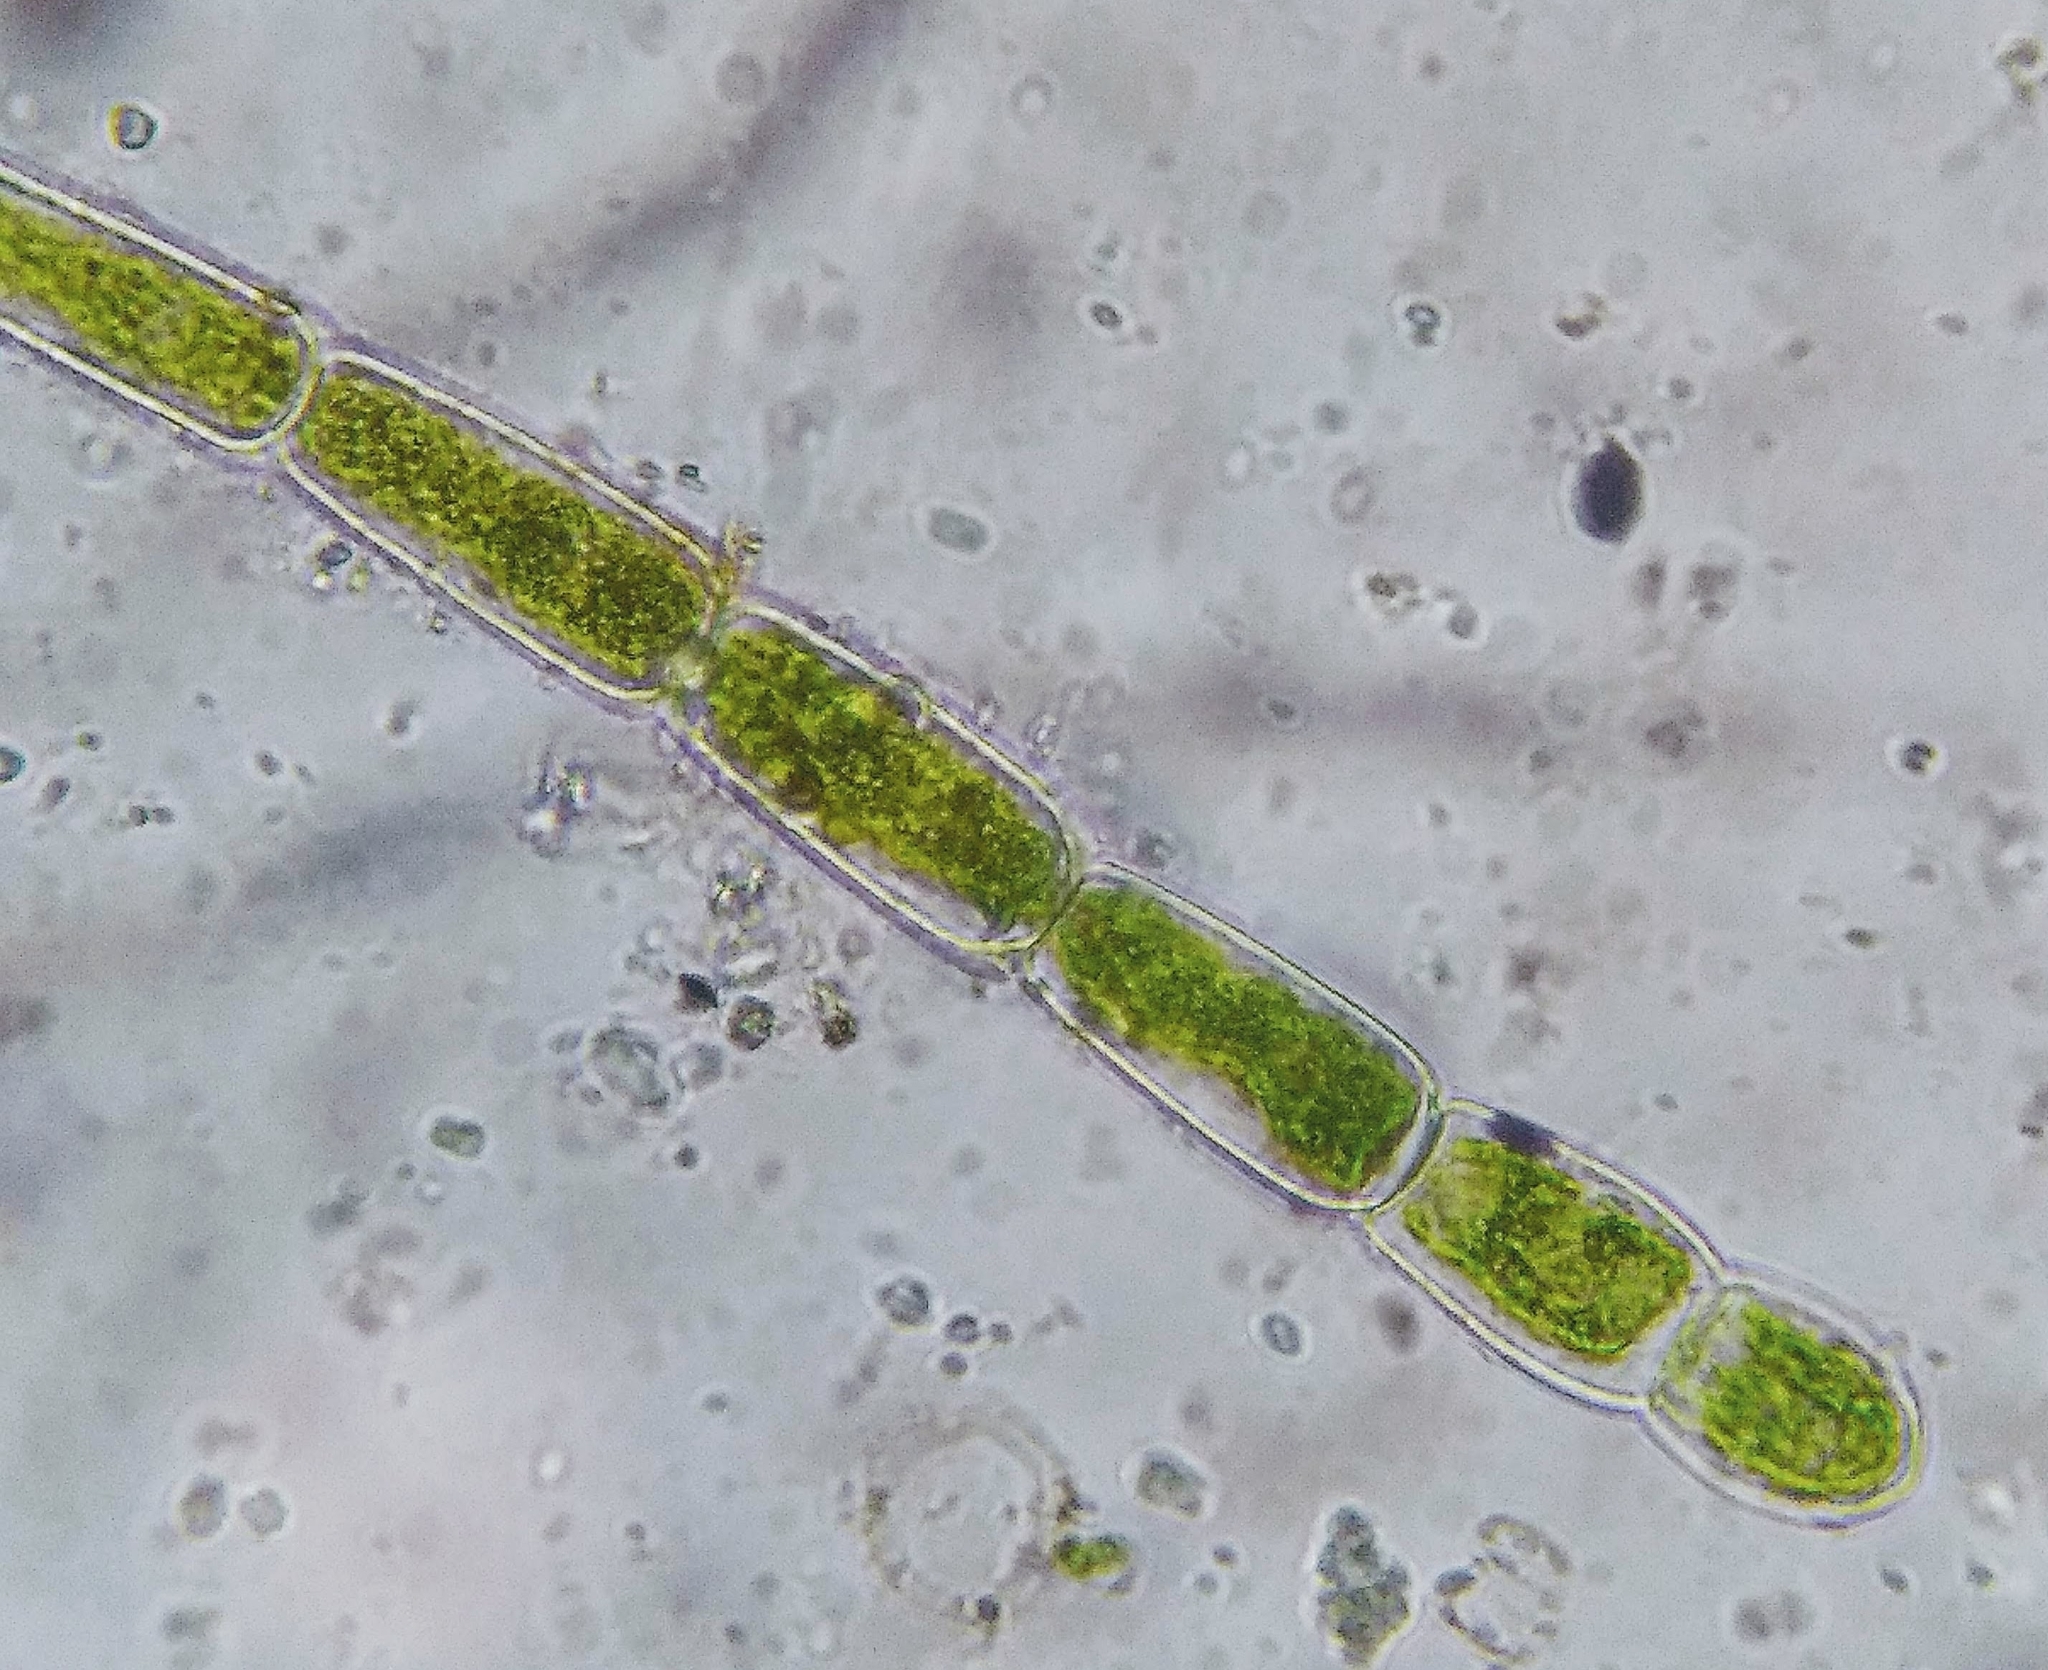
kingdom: Plantae
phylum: Chlorophyta
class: Chlorophyceae
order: Oedogoniales
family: Oedogoniaceae
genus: Oedogonium
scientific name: Oedogonium
